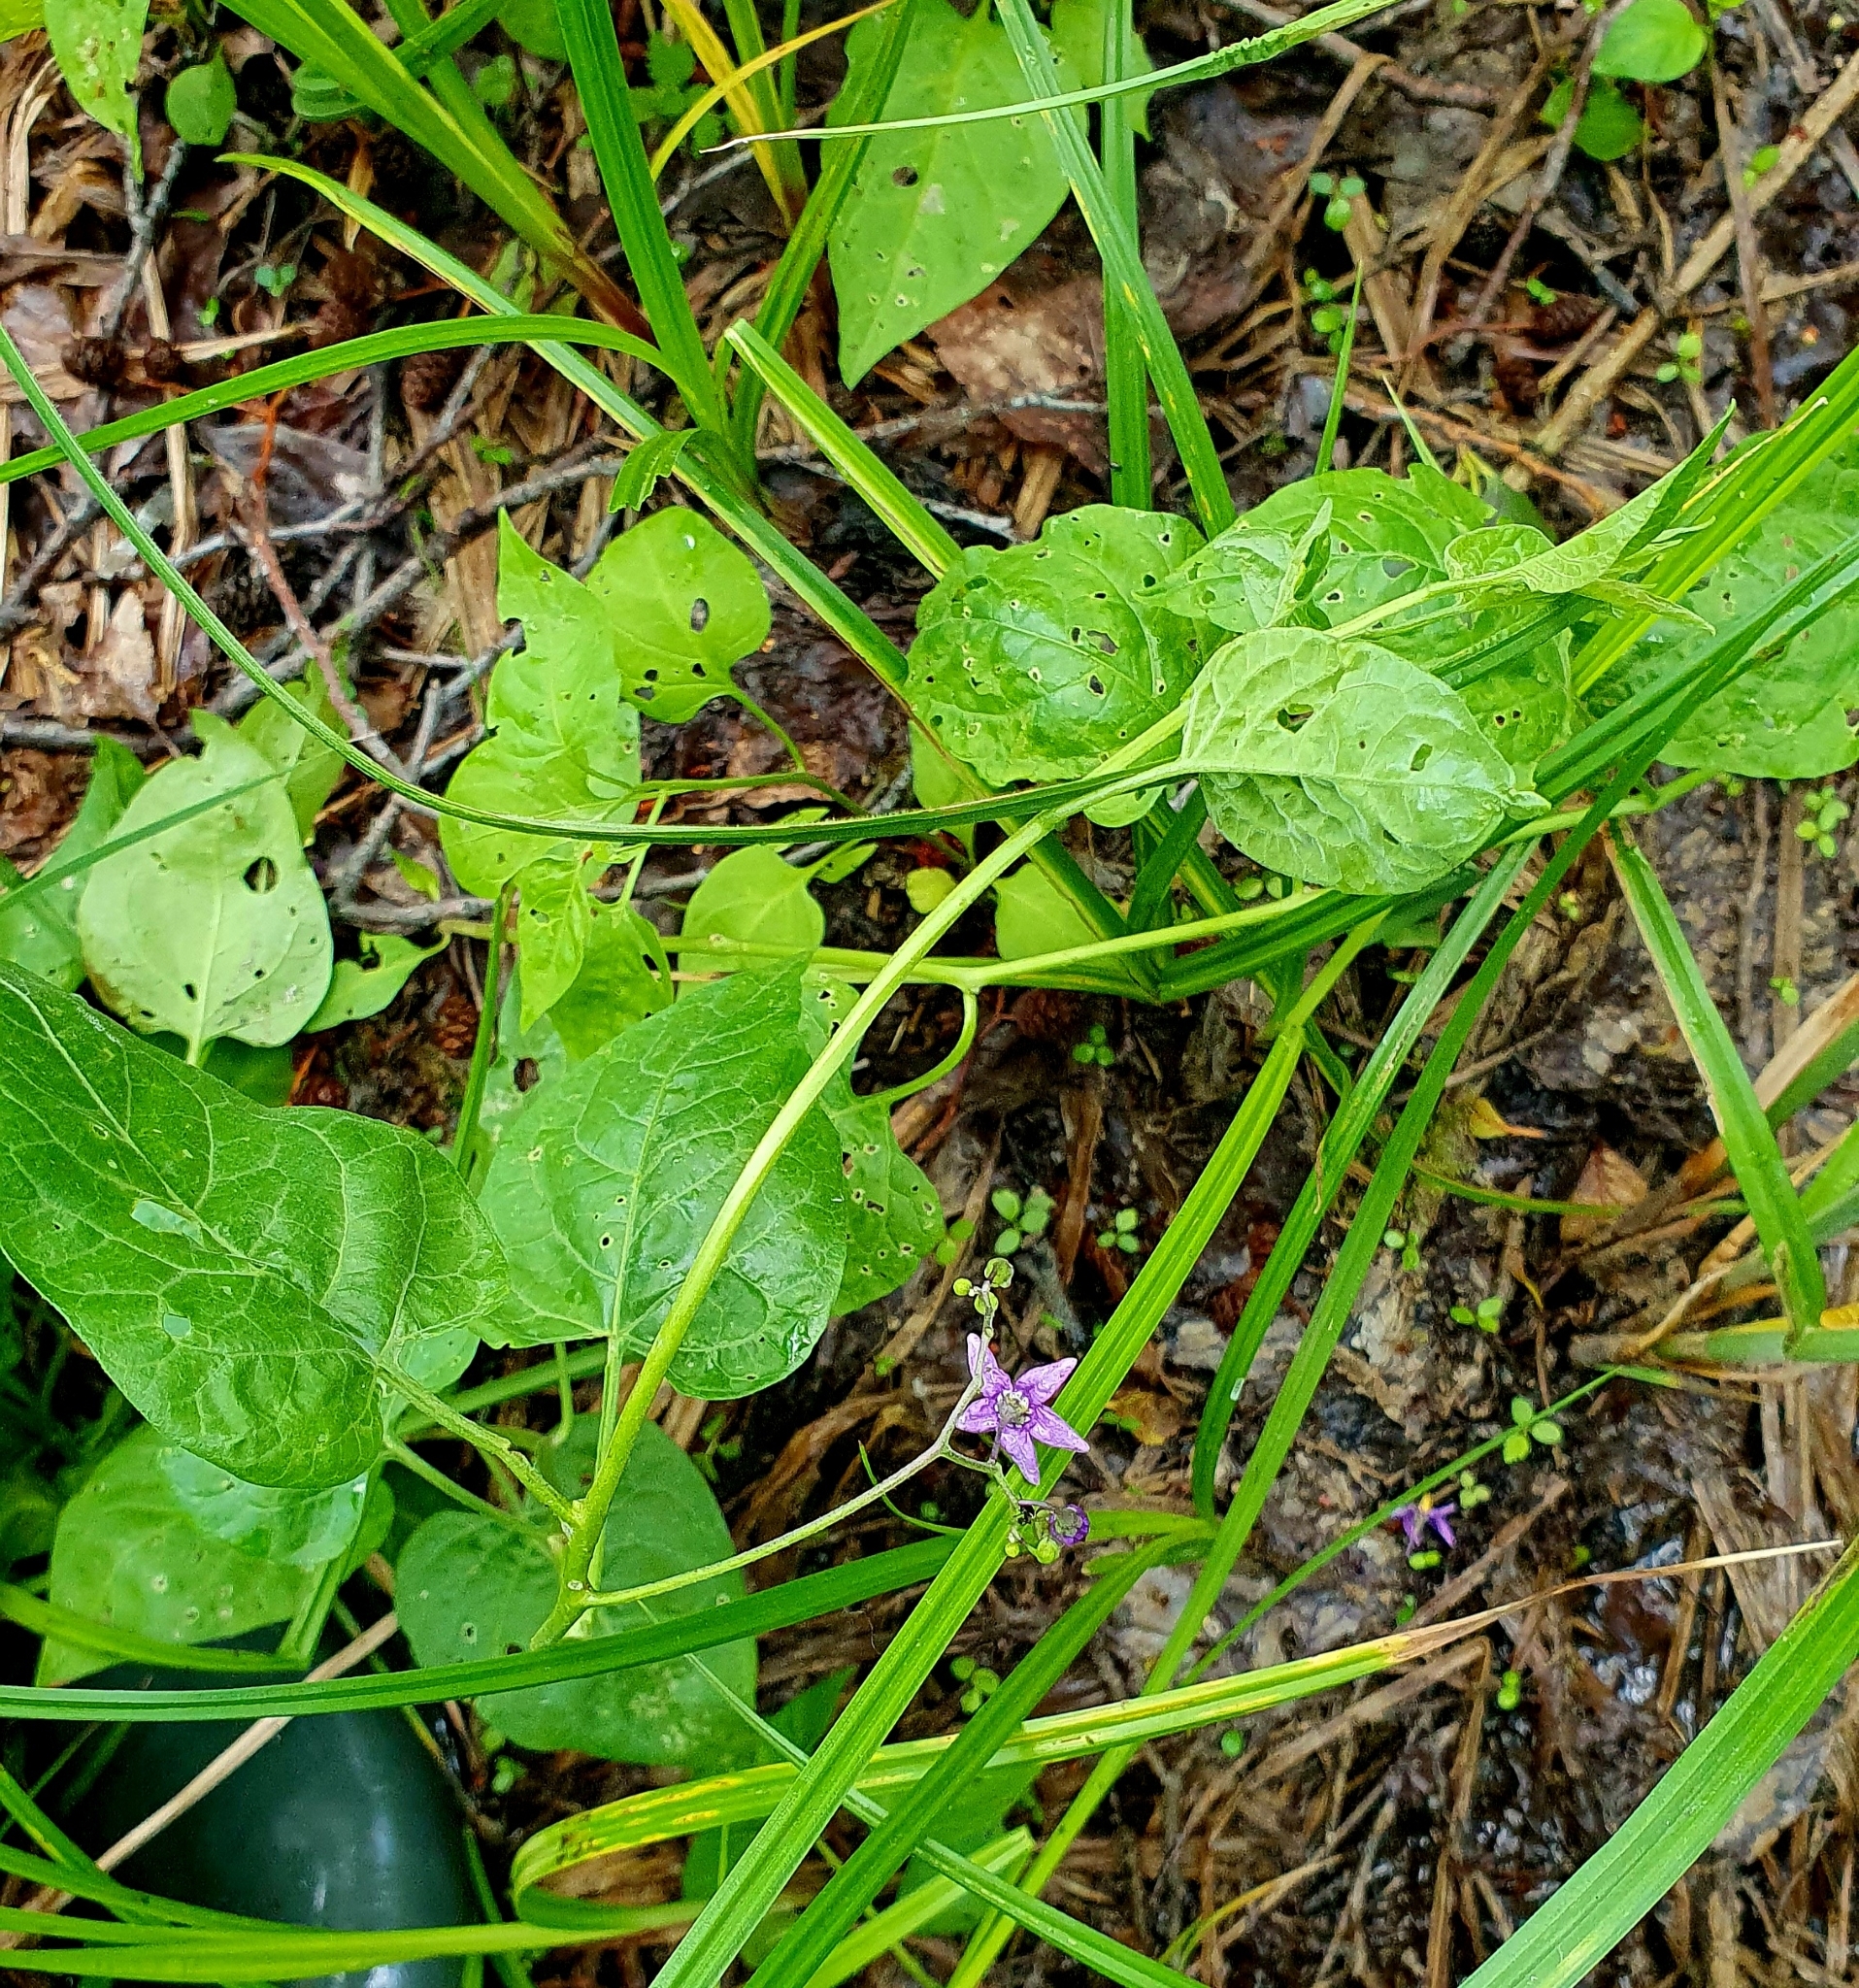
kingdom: Plantae
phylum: Tracheophyta
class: Magnoliopsida
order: Solanales
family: Solanaceae
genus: Solanum
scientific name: Solanum dulcamara
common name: Climbing nightshade
